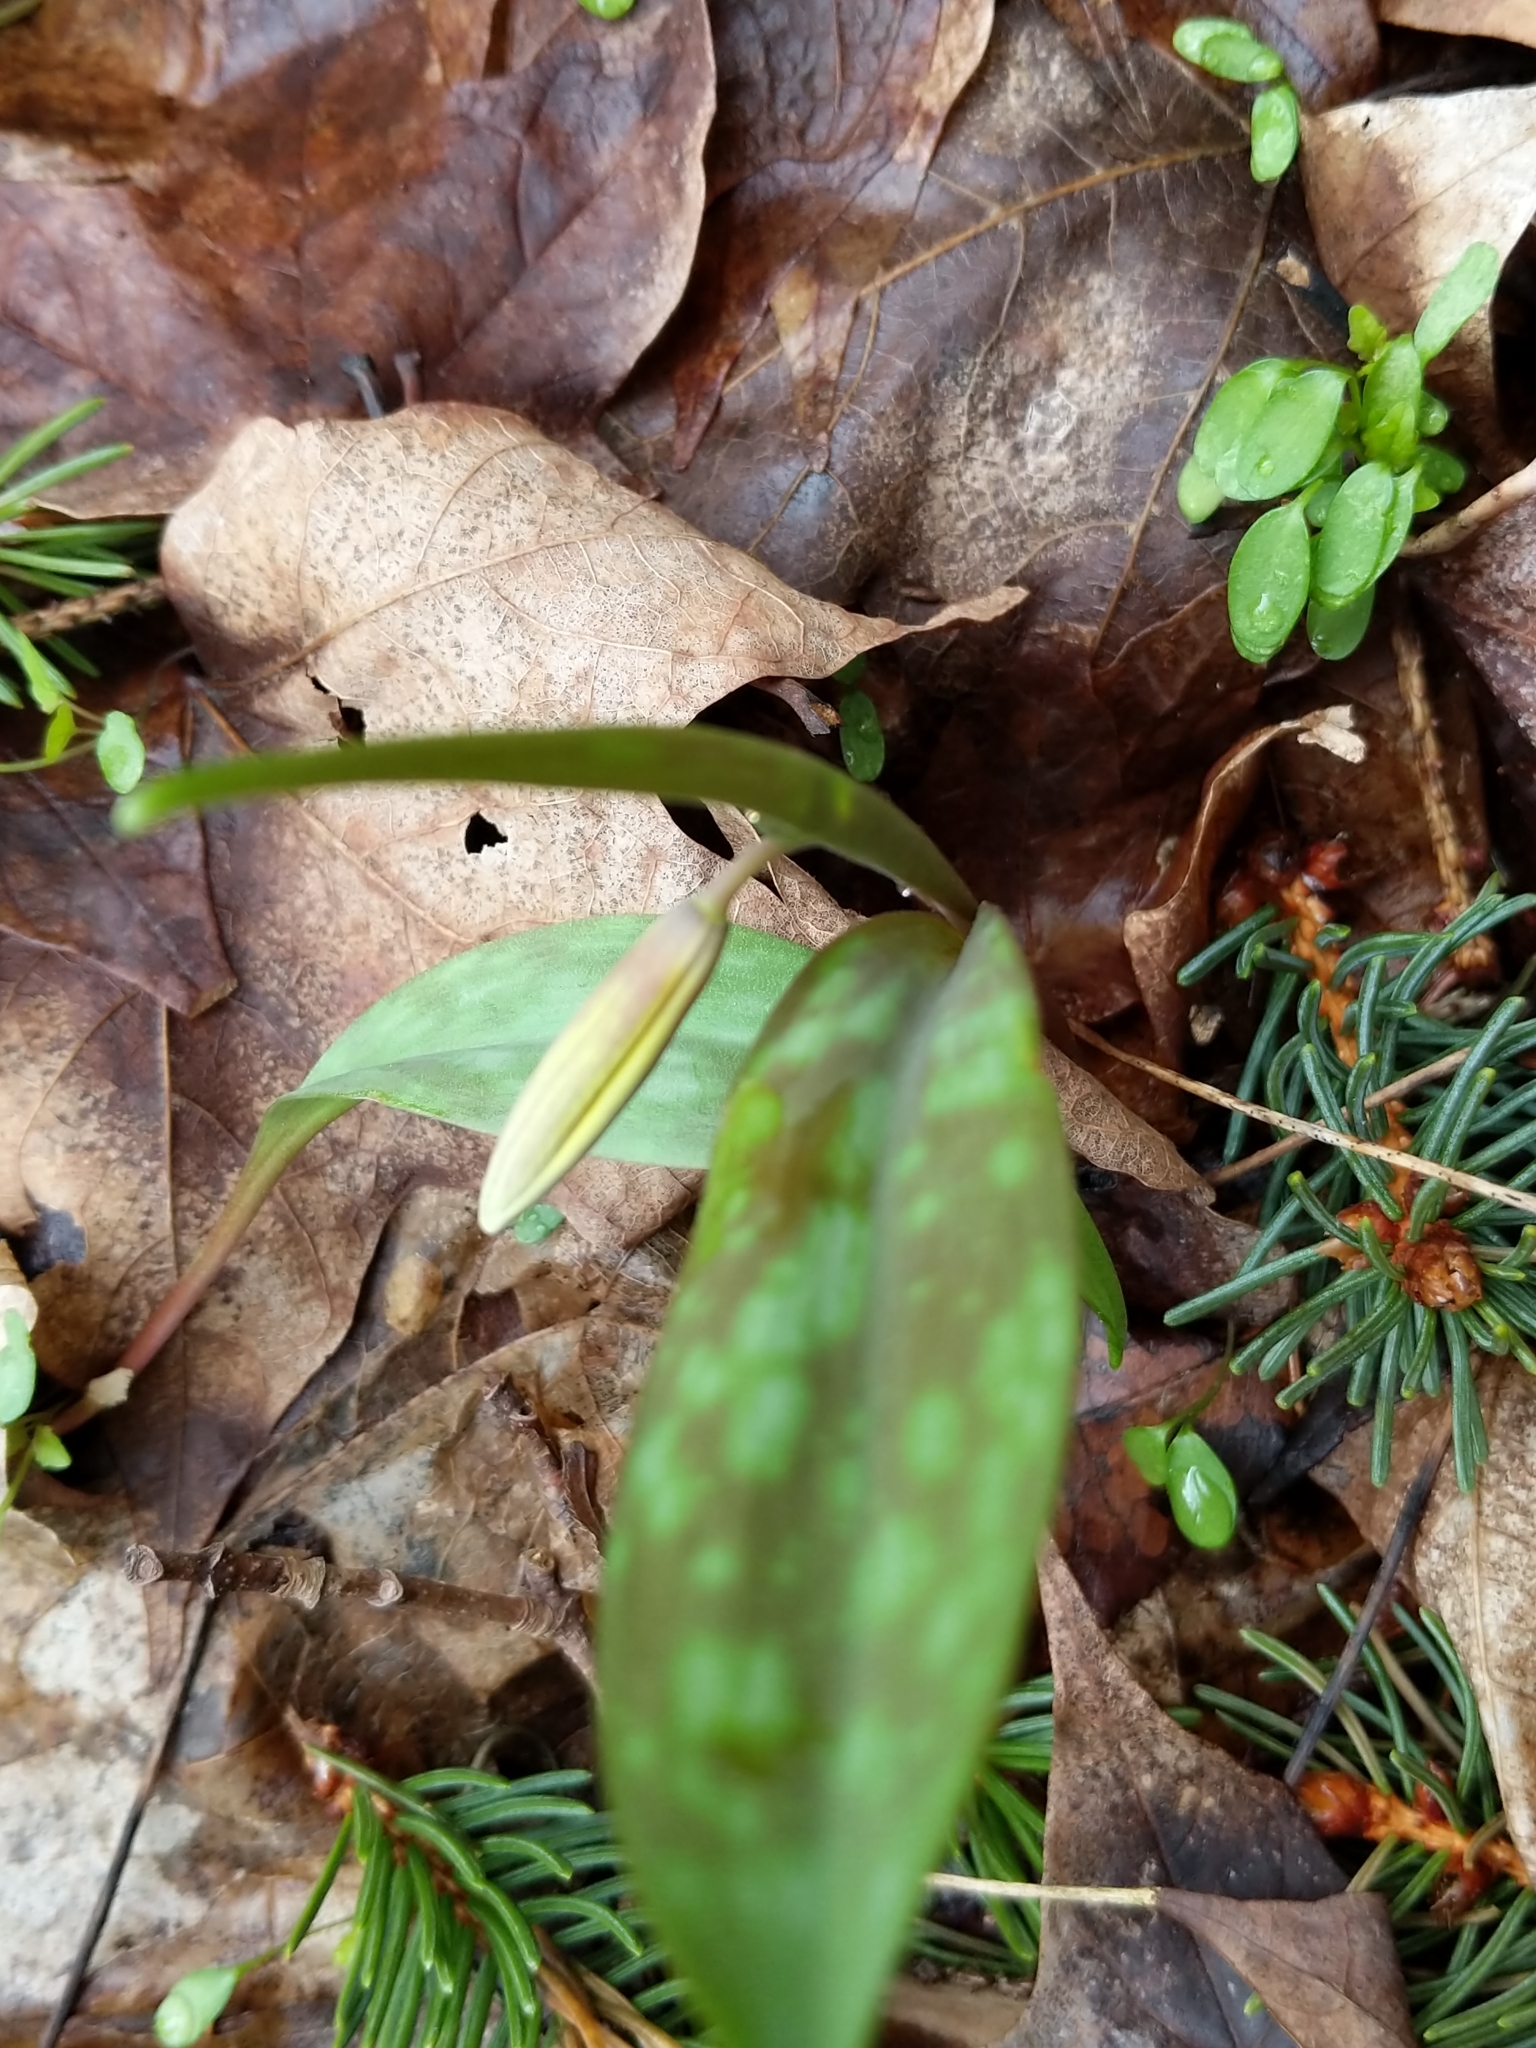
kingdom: Plantae
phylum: Tracheophyta
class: Liliopsida
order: Liliales
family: Liliaceae
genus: Erythronium
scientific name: Erythronium americanum
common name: Yellow adder's-tongue
